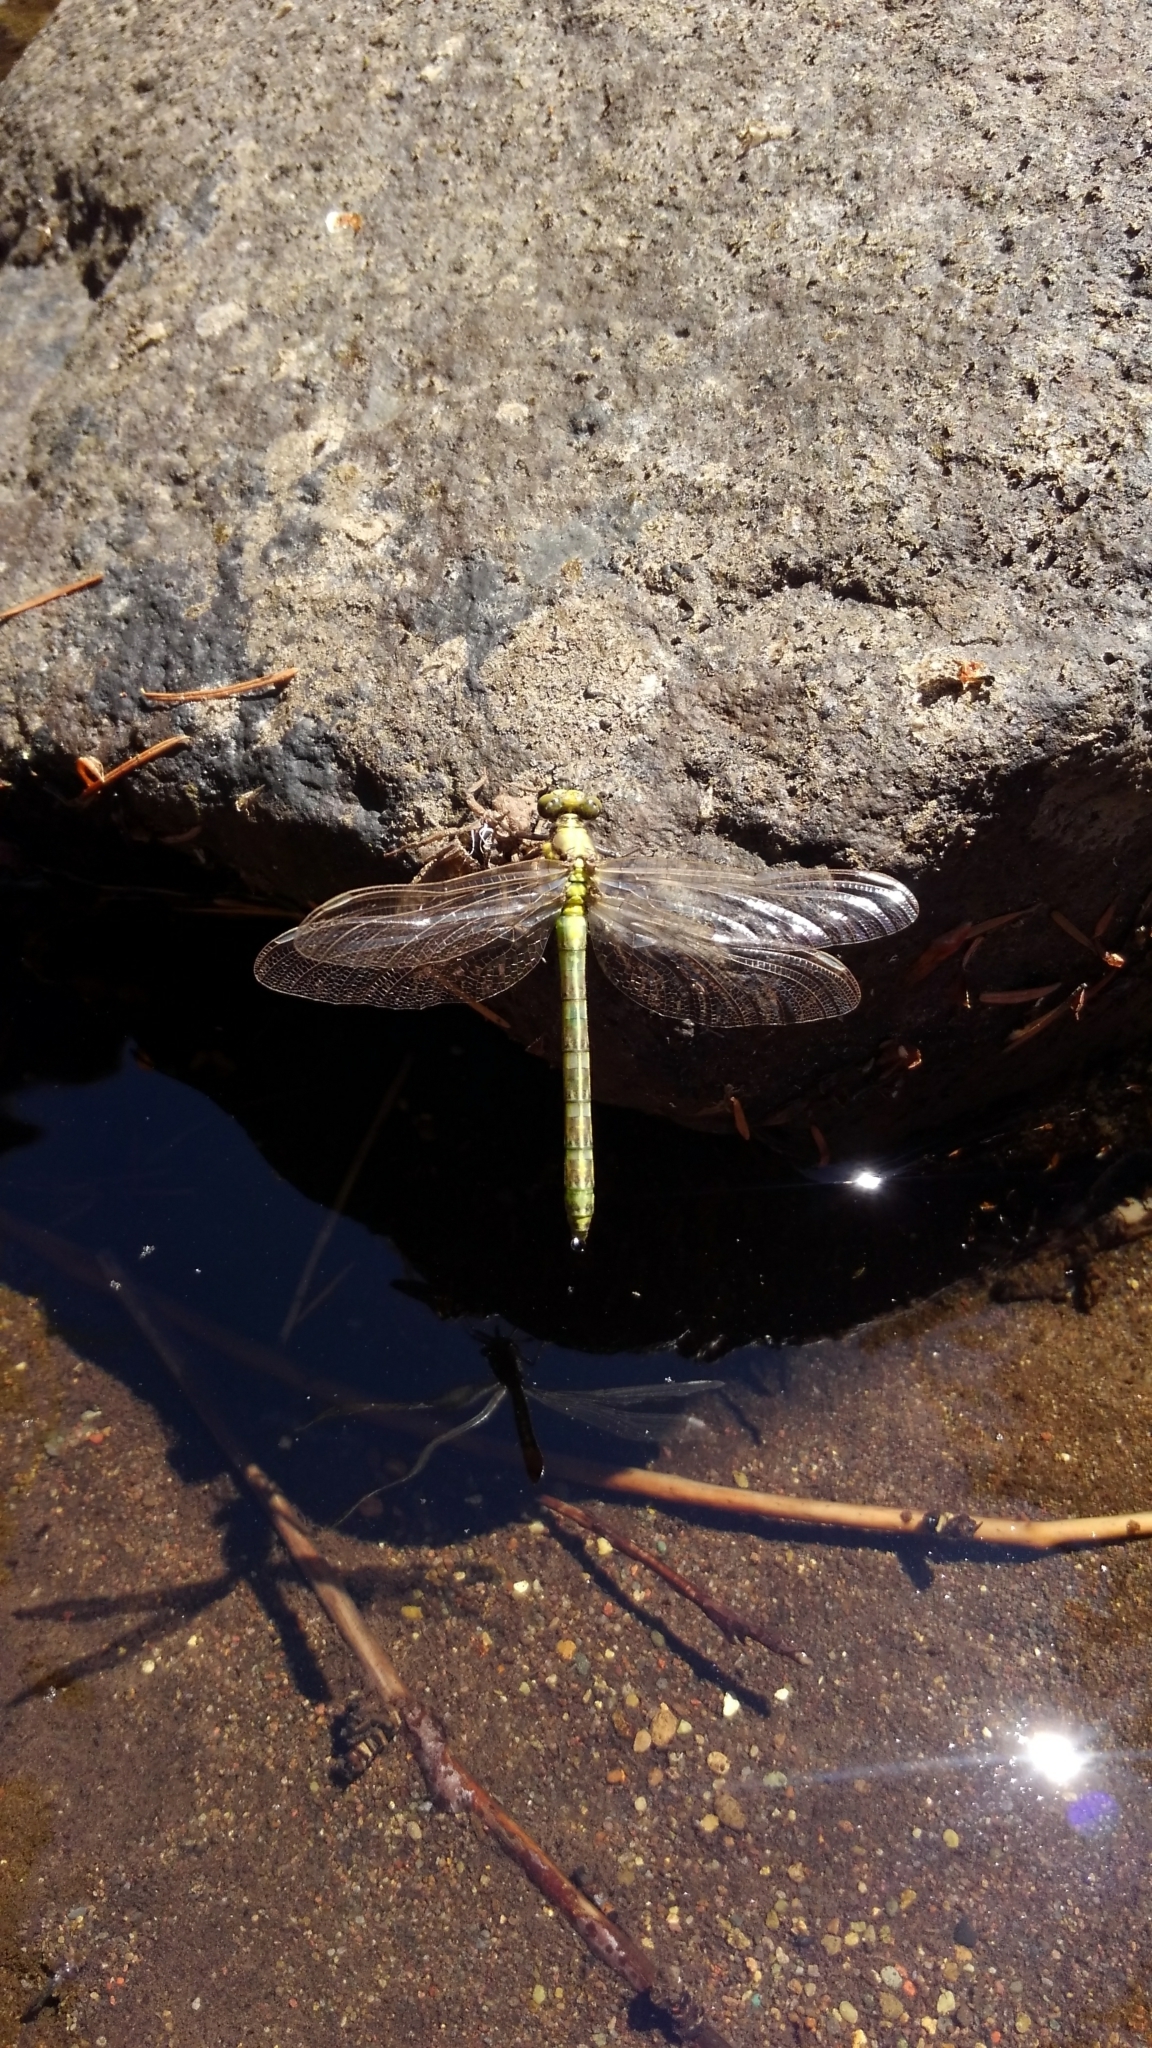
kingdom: Animalia
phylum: Arthropoda
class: Insecta
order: Odonata
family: Gomphidae
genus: Octogomphus
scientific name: Octogomphus specularis
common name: Grappletail
